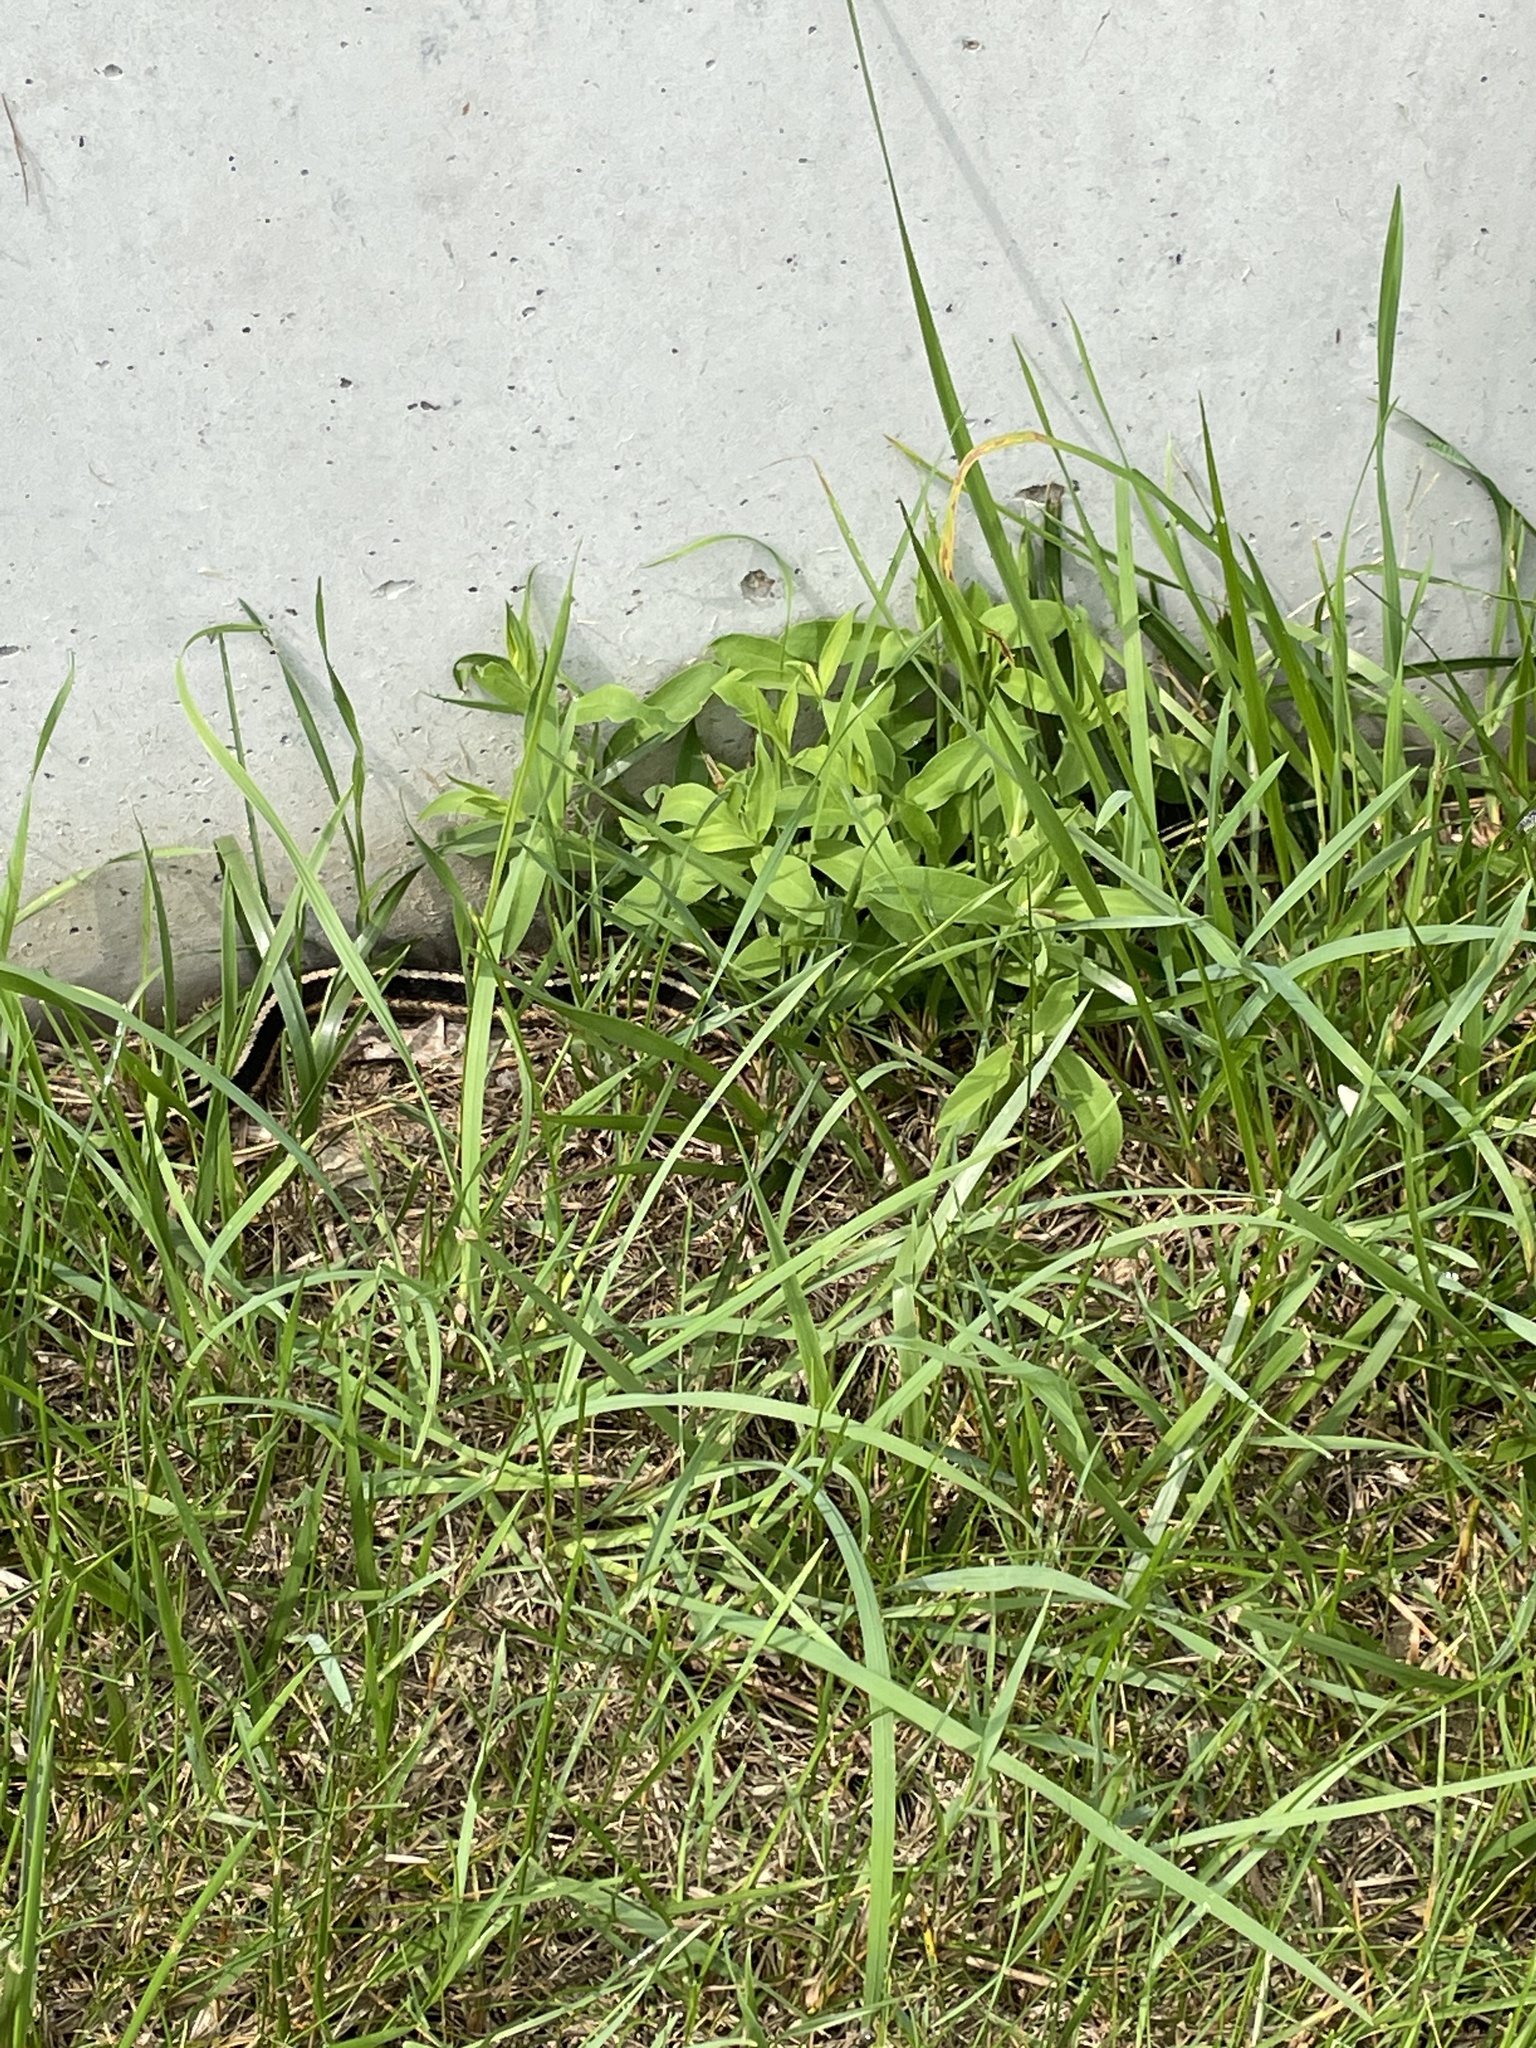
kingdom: Animalia
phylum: Chordata
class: Squamata
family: Colubridae
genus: Thamnophis
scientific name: Thamnophis sirtalis
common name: Common garter snake
